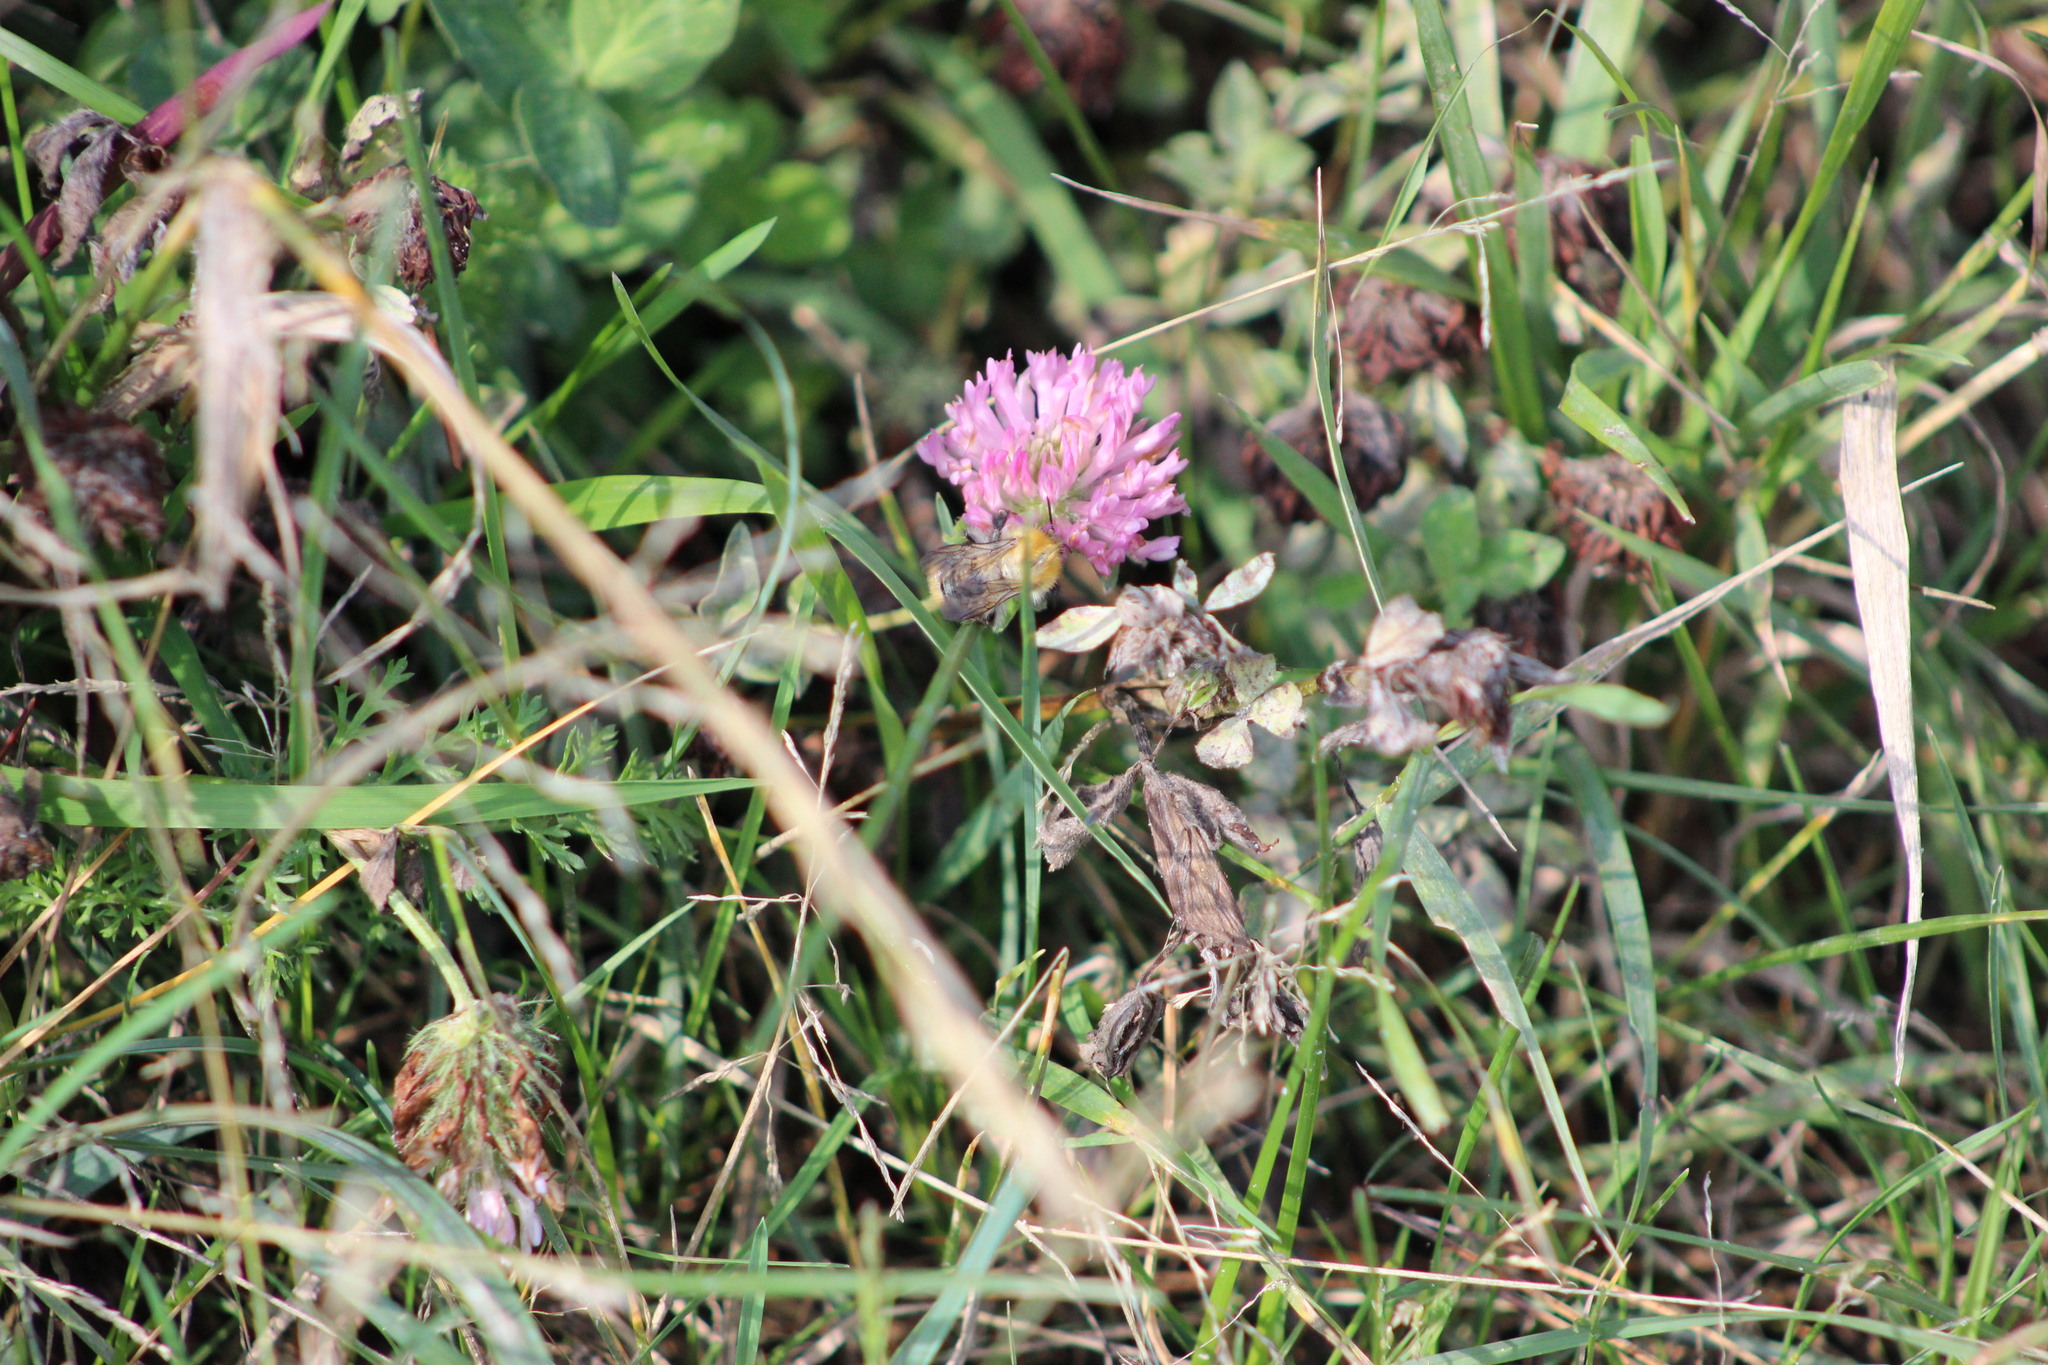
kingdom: Plantae
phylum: Tracheophyta
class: Magnoliopsida
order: Fabales
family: Fabaceae
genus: Trifolium
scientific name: Trifolium pratense
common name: Red clover
